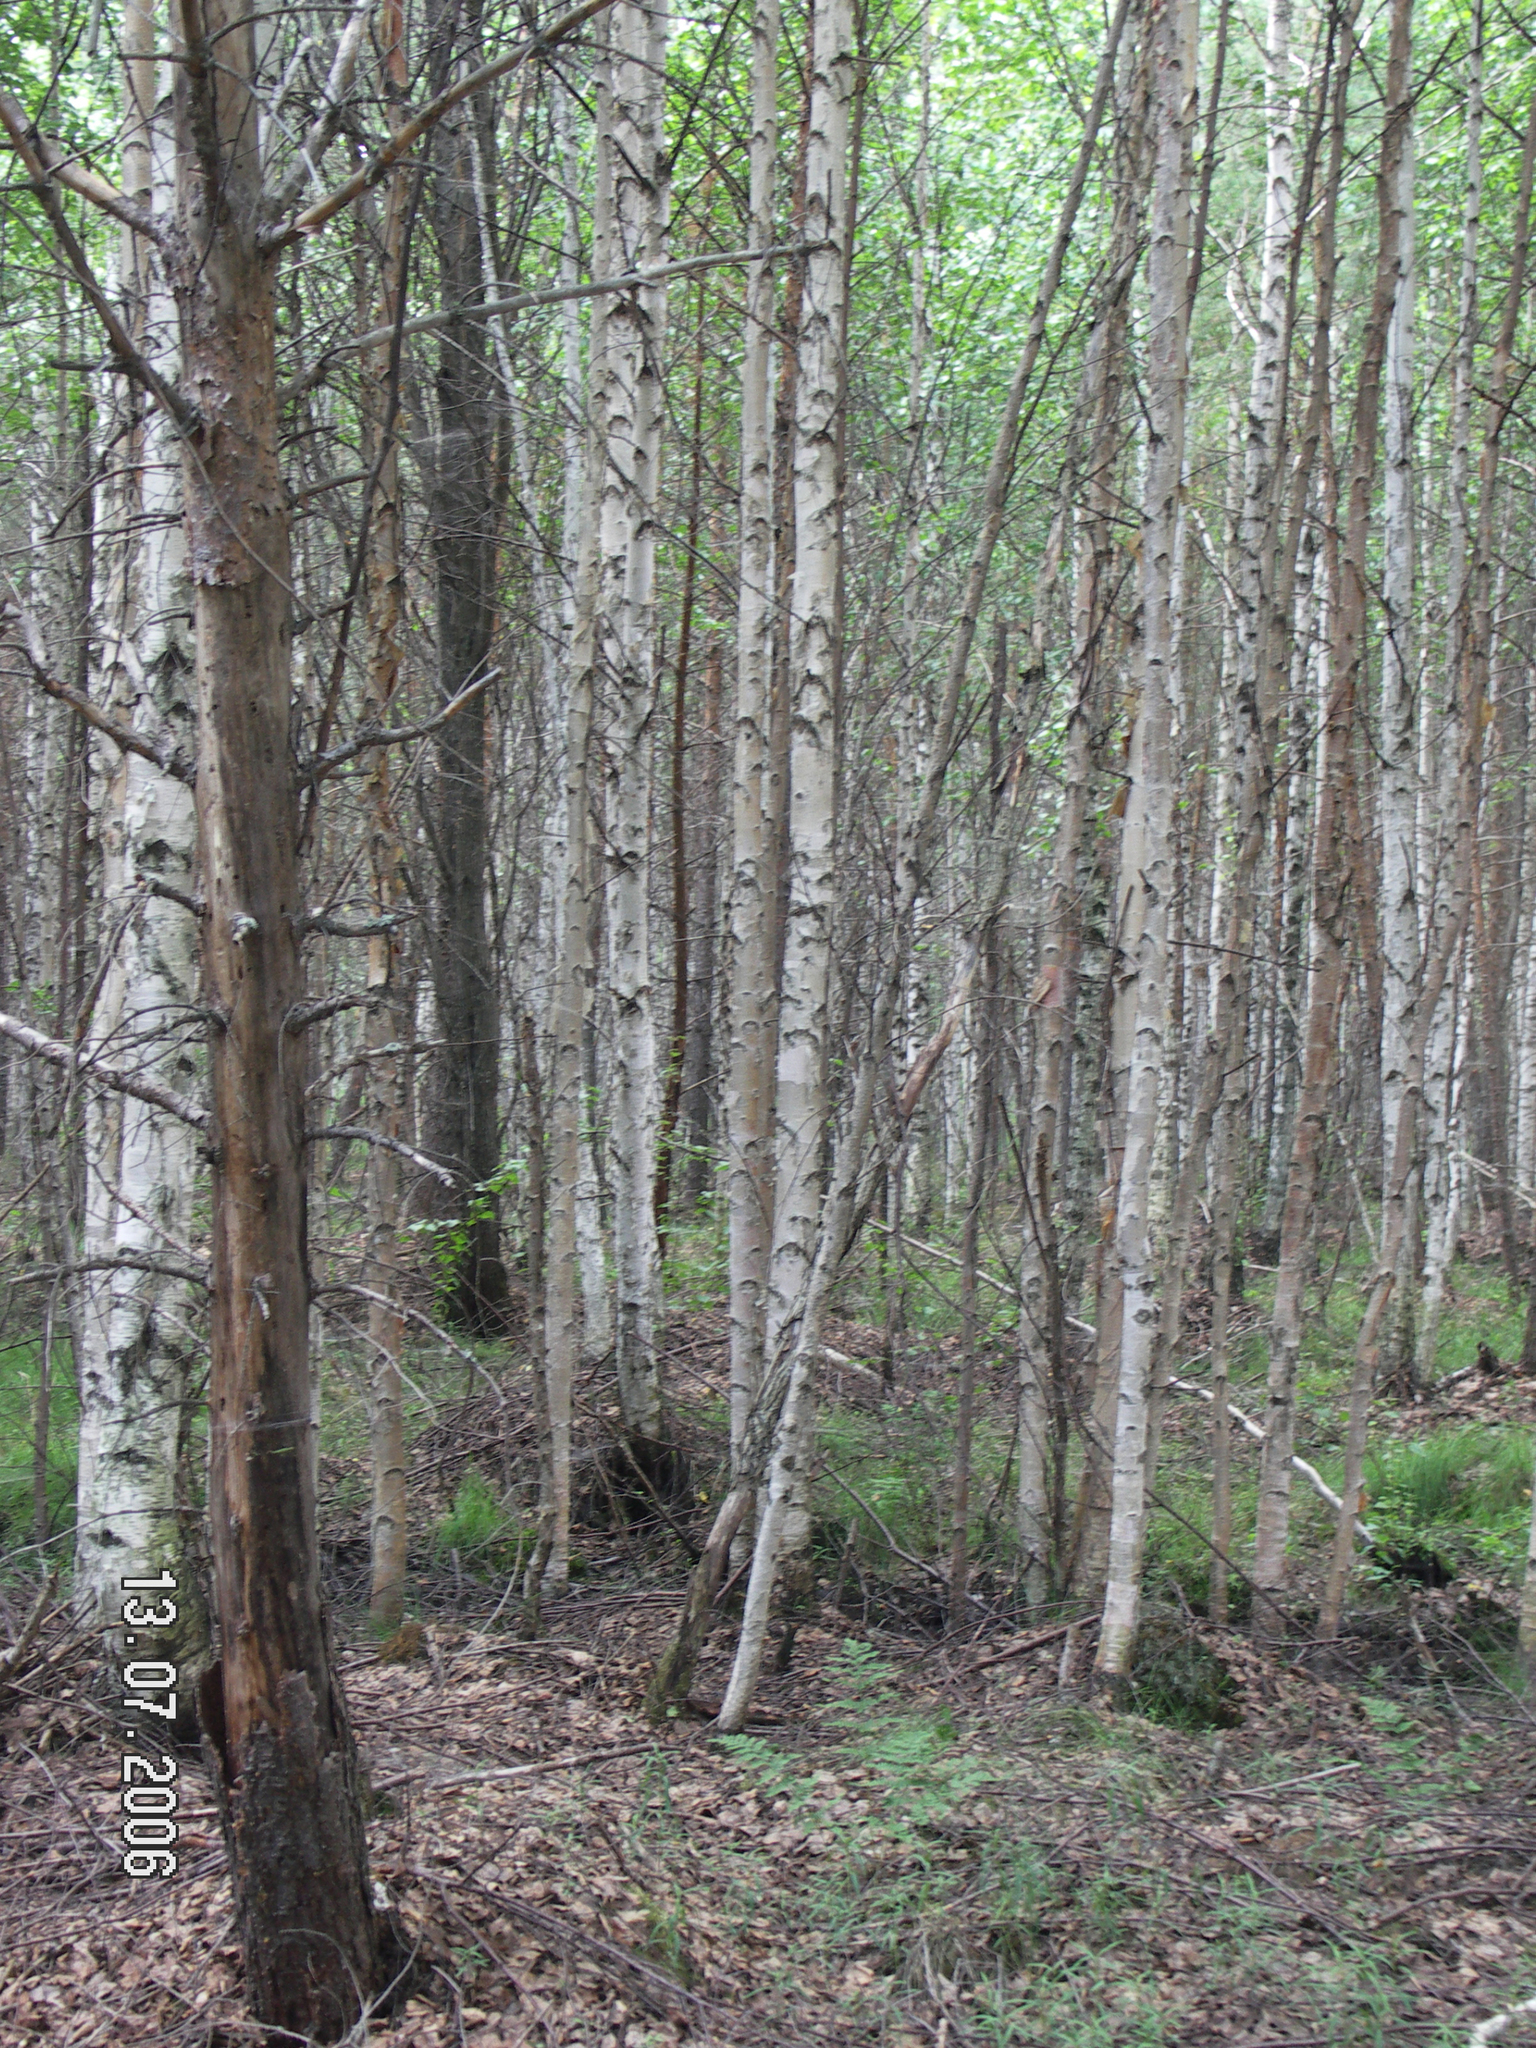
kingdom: Plantae
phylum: Tracheophyta
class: Magnoliopsida
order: Fagales
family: Betulaceae
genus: Betula
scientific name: Betula pubescens
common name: Downy birch
